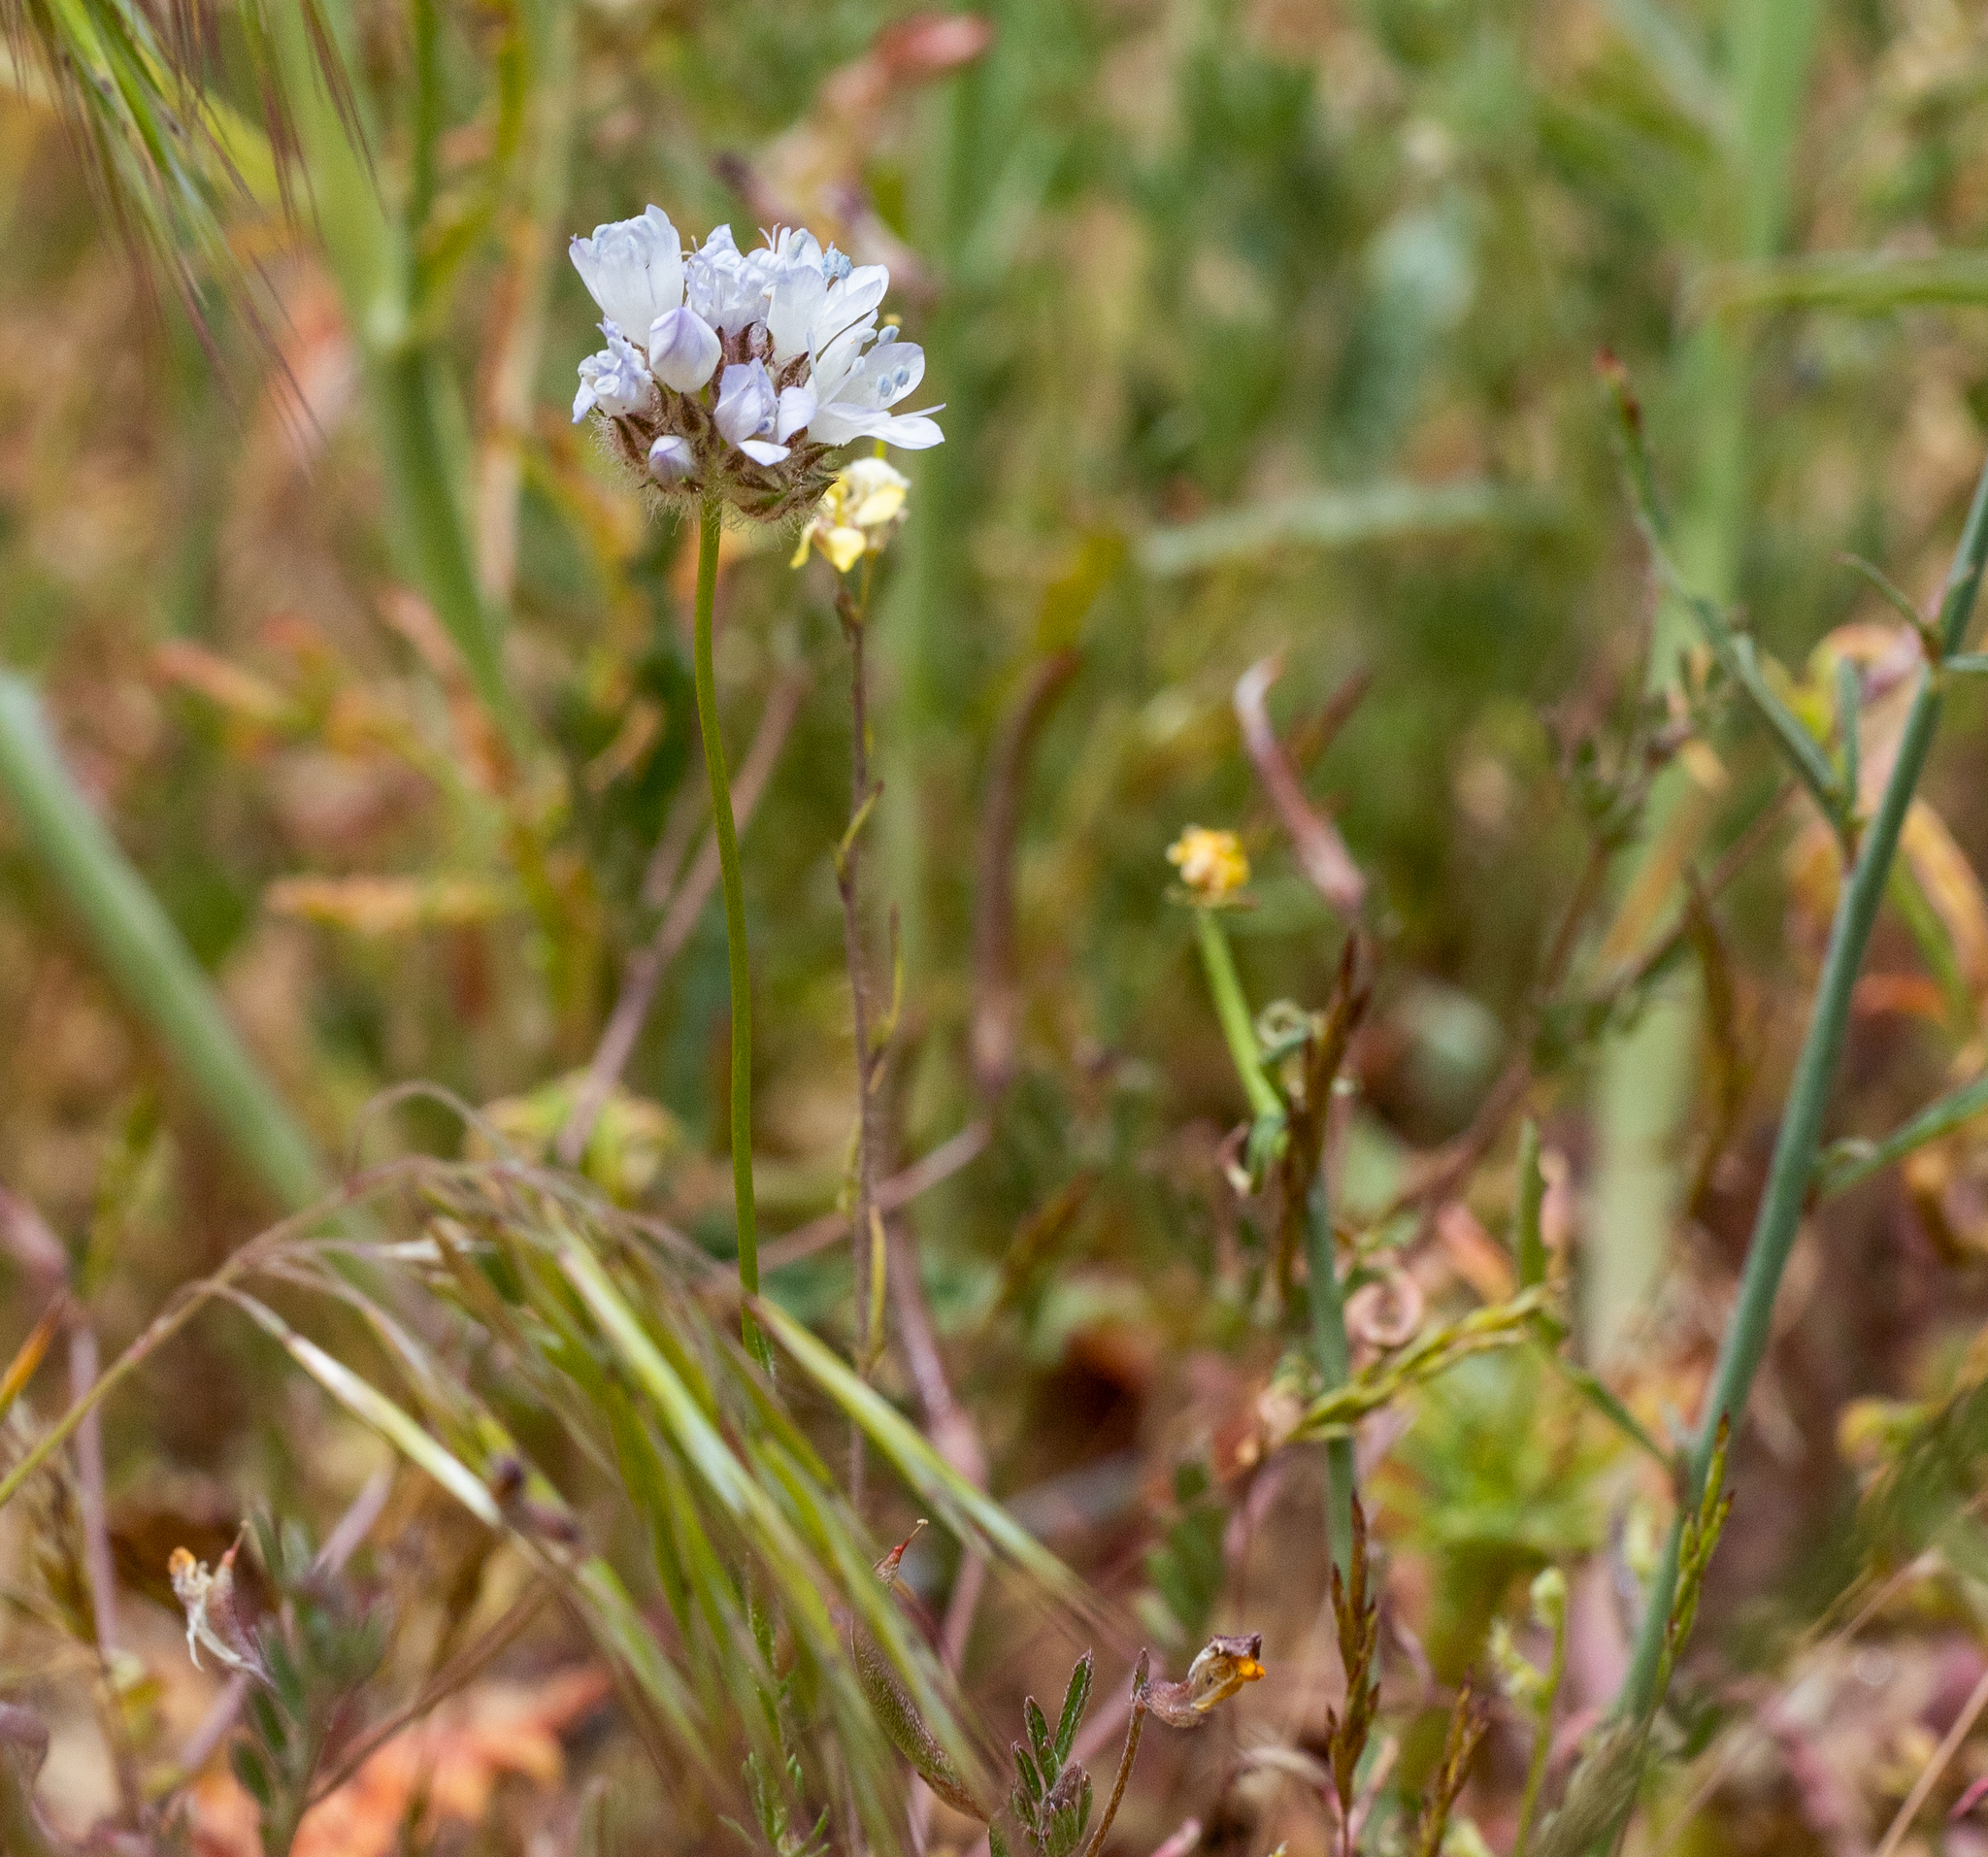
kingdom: Plantae
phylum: Tracheophyta
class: Magnoliopsida
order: Ericales
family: Polemoniaceae
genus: Gilia
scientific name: Gilia capitata
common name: Bluehead gilia
